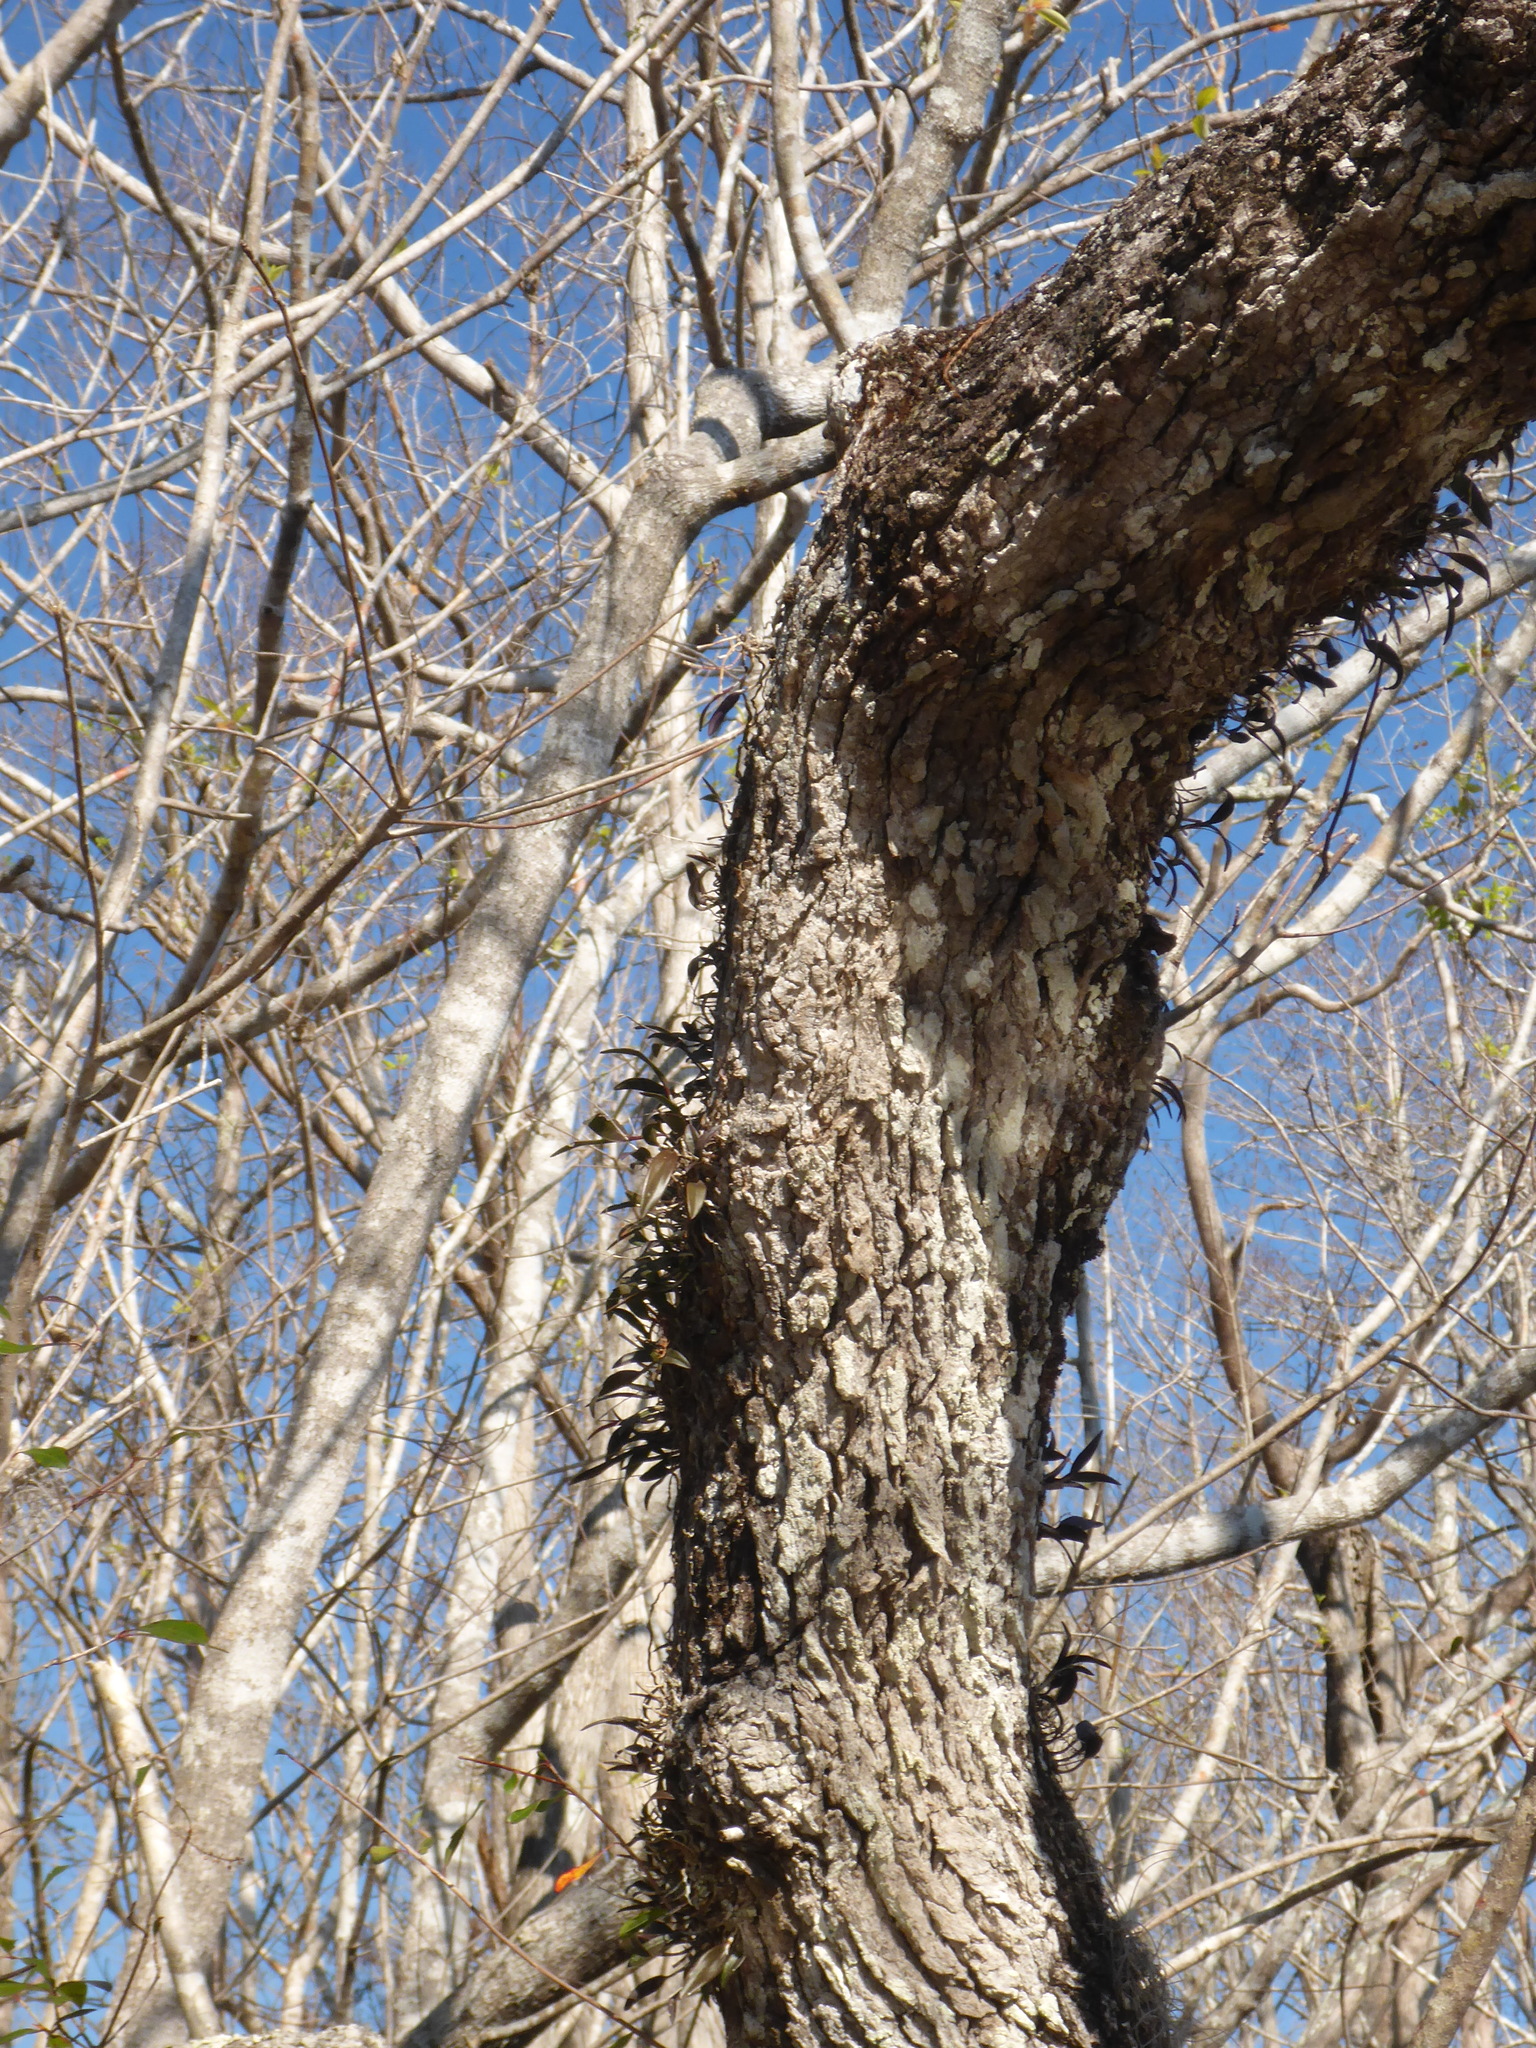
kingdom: Plantae
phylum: Tracheophyta
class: Liliopsida
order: Asparagales
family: Orchidaceae
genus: Epidendrum
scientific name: Epidendrum conopseum
